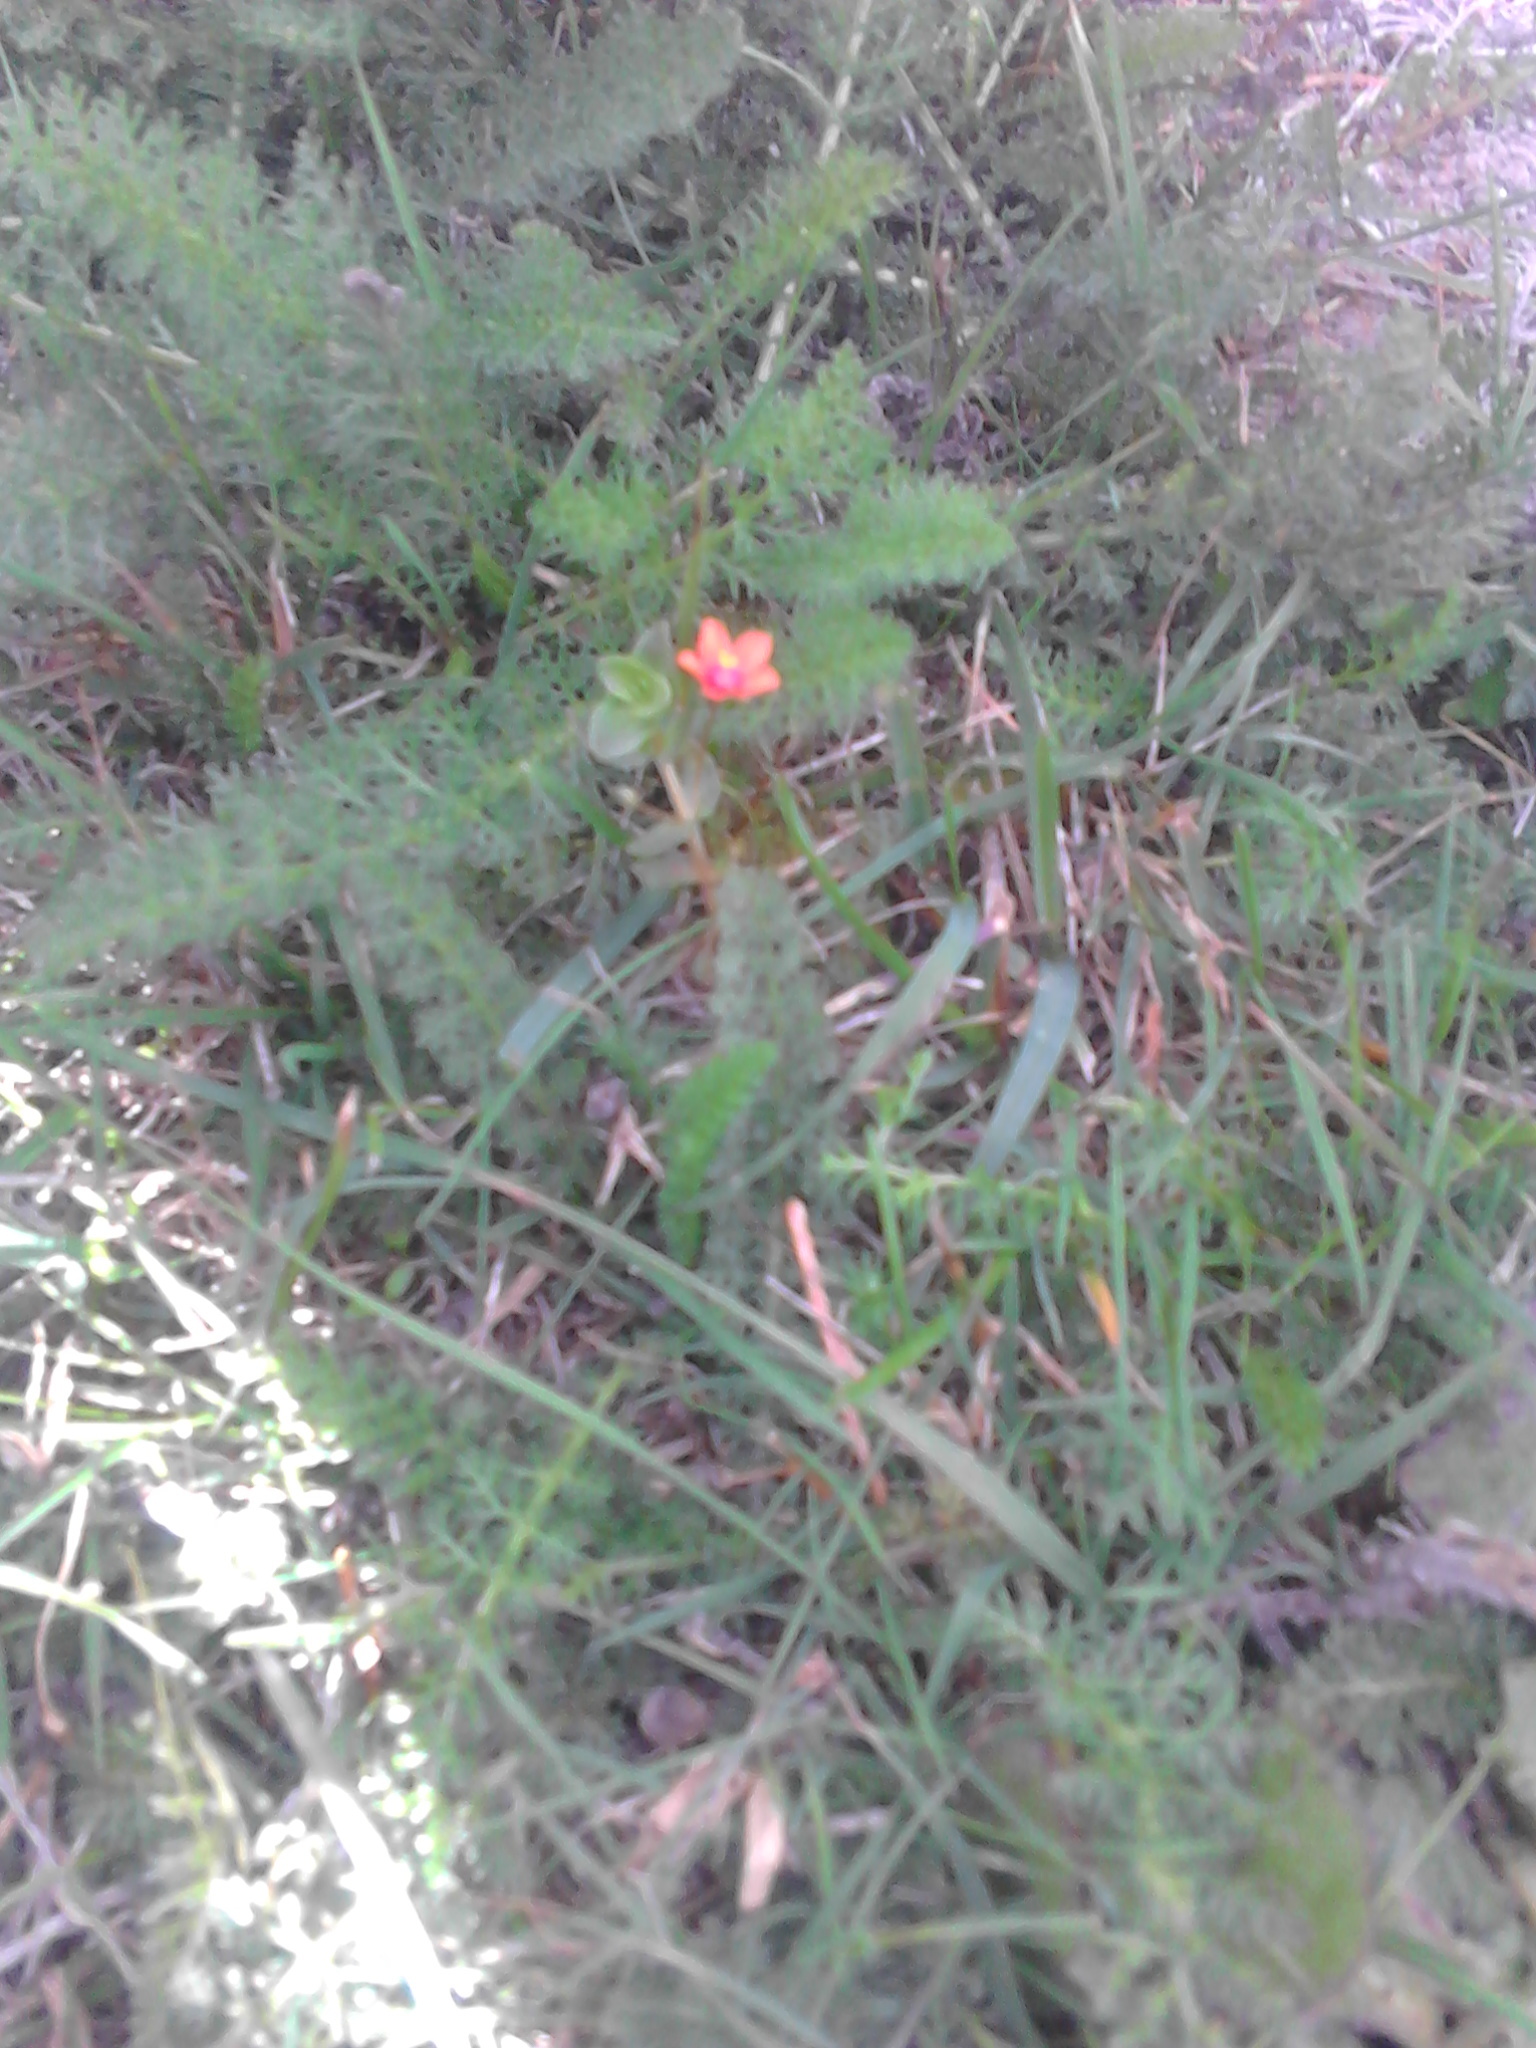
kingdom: Plantae
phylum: Tracheophyta
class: Magnoliopsida
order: Ericales
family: Primulaceae
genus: Lysimachia
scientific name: Lysimachia arvensis
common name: Scarlet pimpernel
